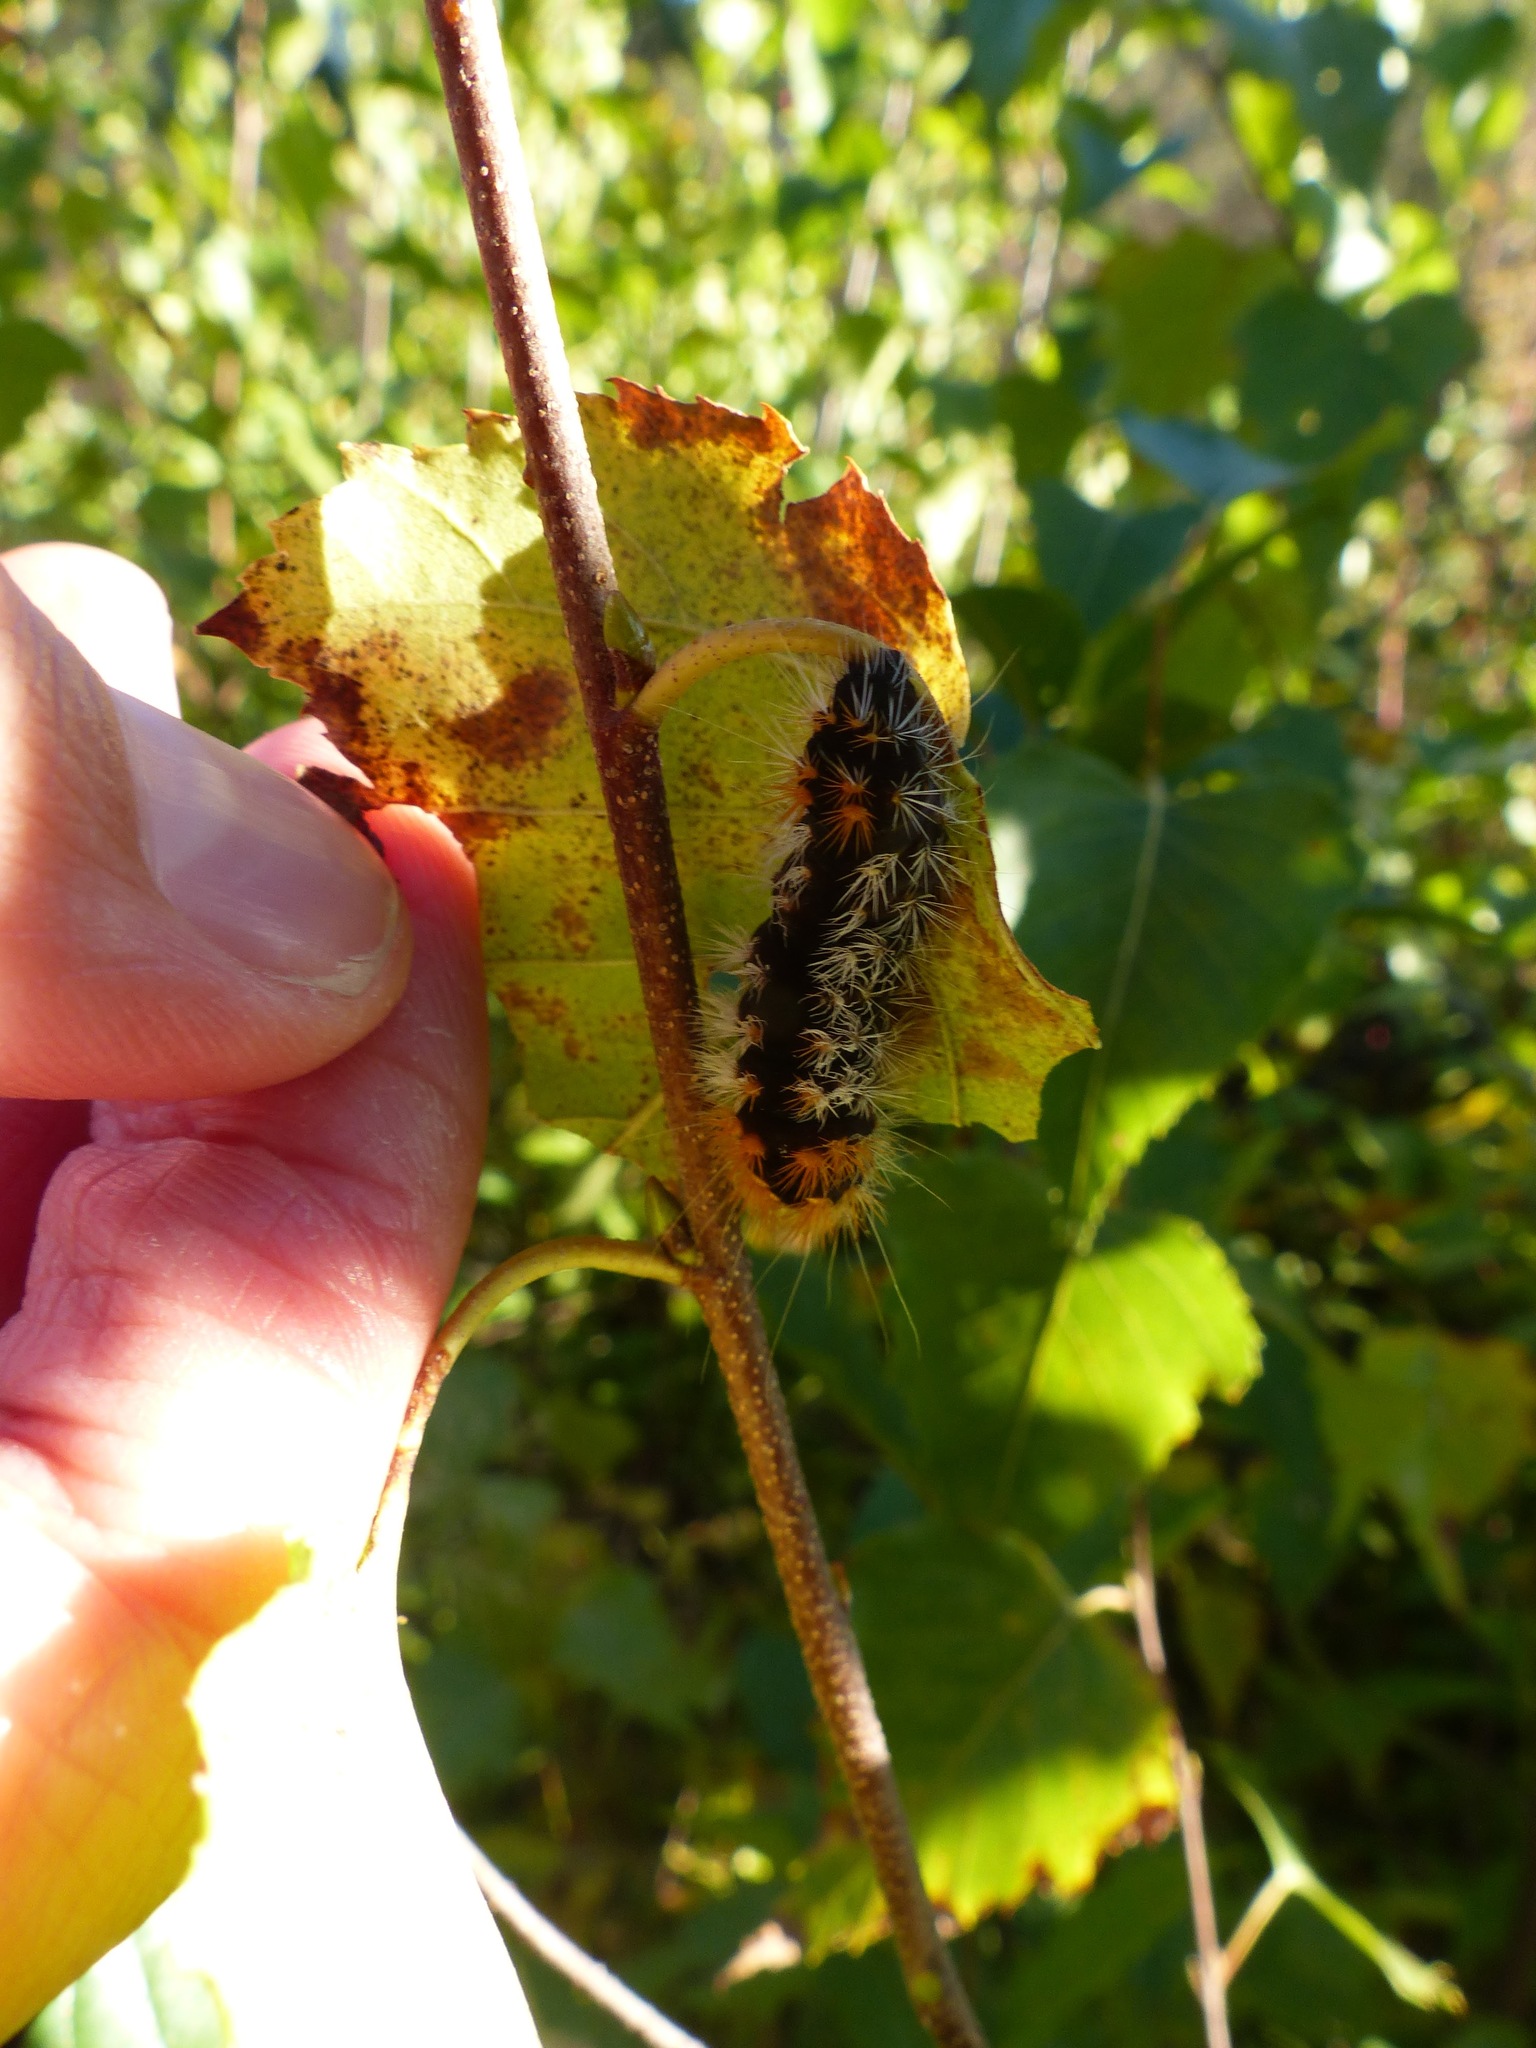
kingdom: Animalia
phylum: Arthropoda
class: Insecta
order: Lepidoptera
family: Noctuidae
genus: Acronicta
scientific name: Acronicta impressa
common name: Impressed dagger
